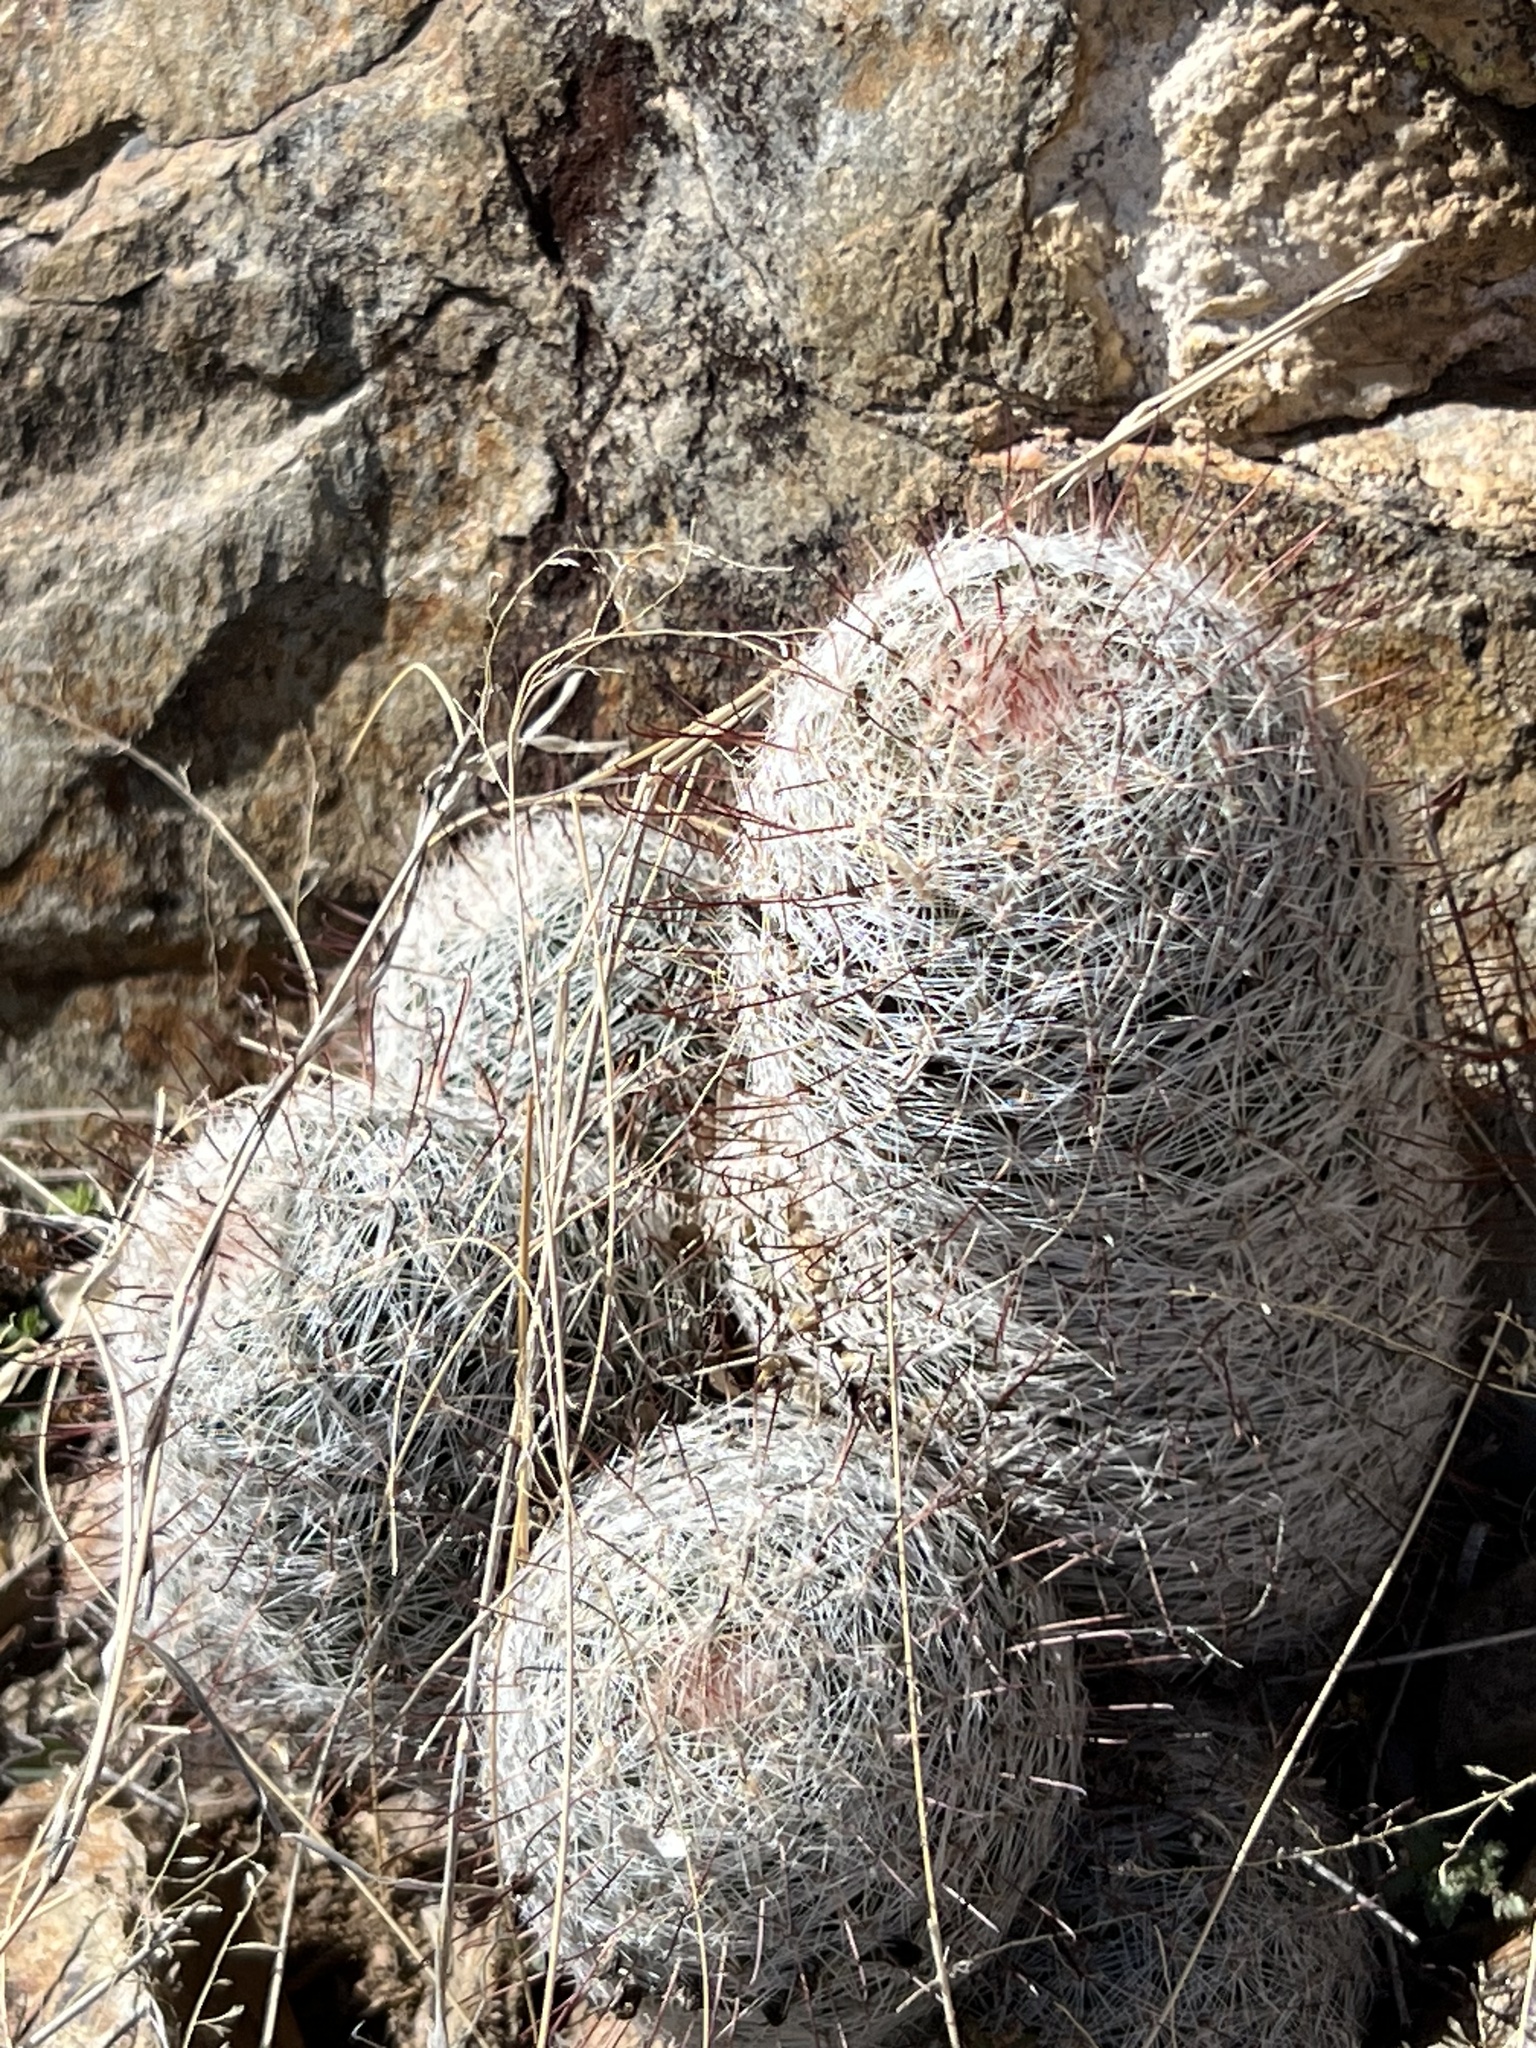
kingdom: Plantae
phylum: Tracheophyta
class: Magnoliopsida
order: Caryophyllales
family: Cactaceae
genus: Cochemiea
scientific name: Cochemiea grahamii
